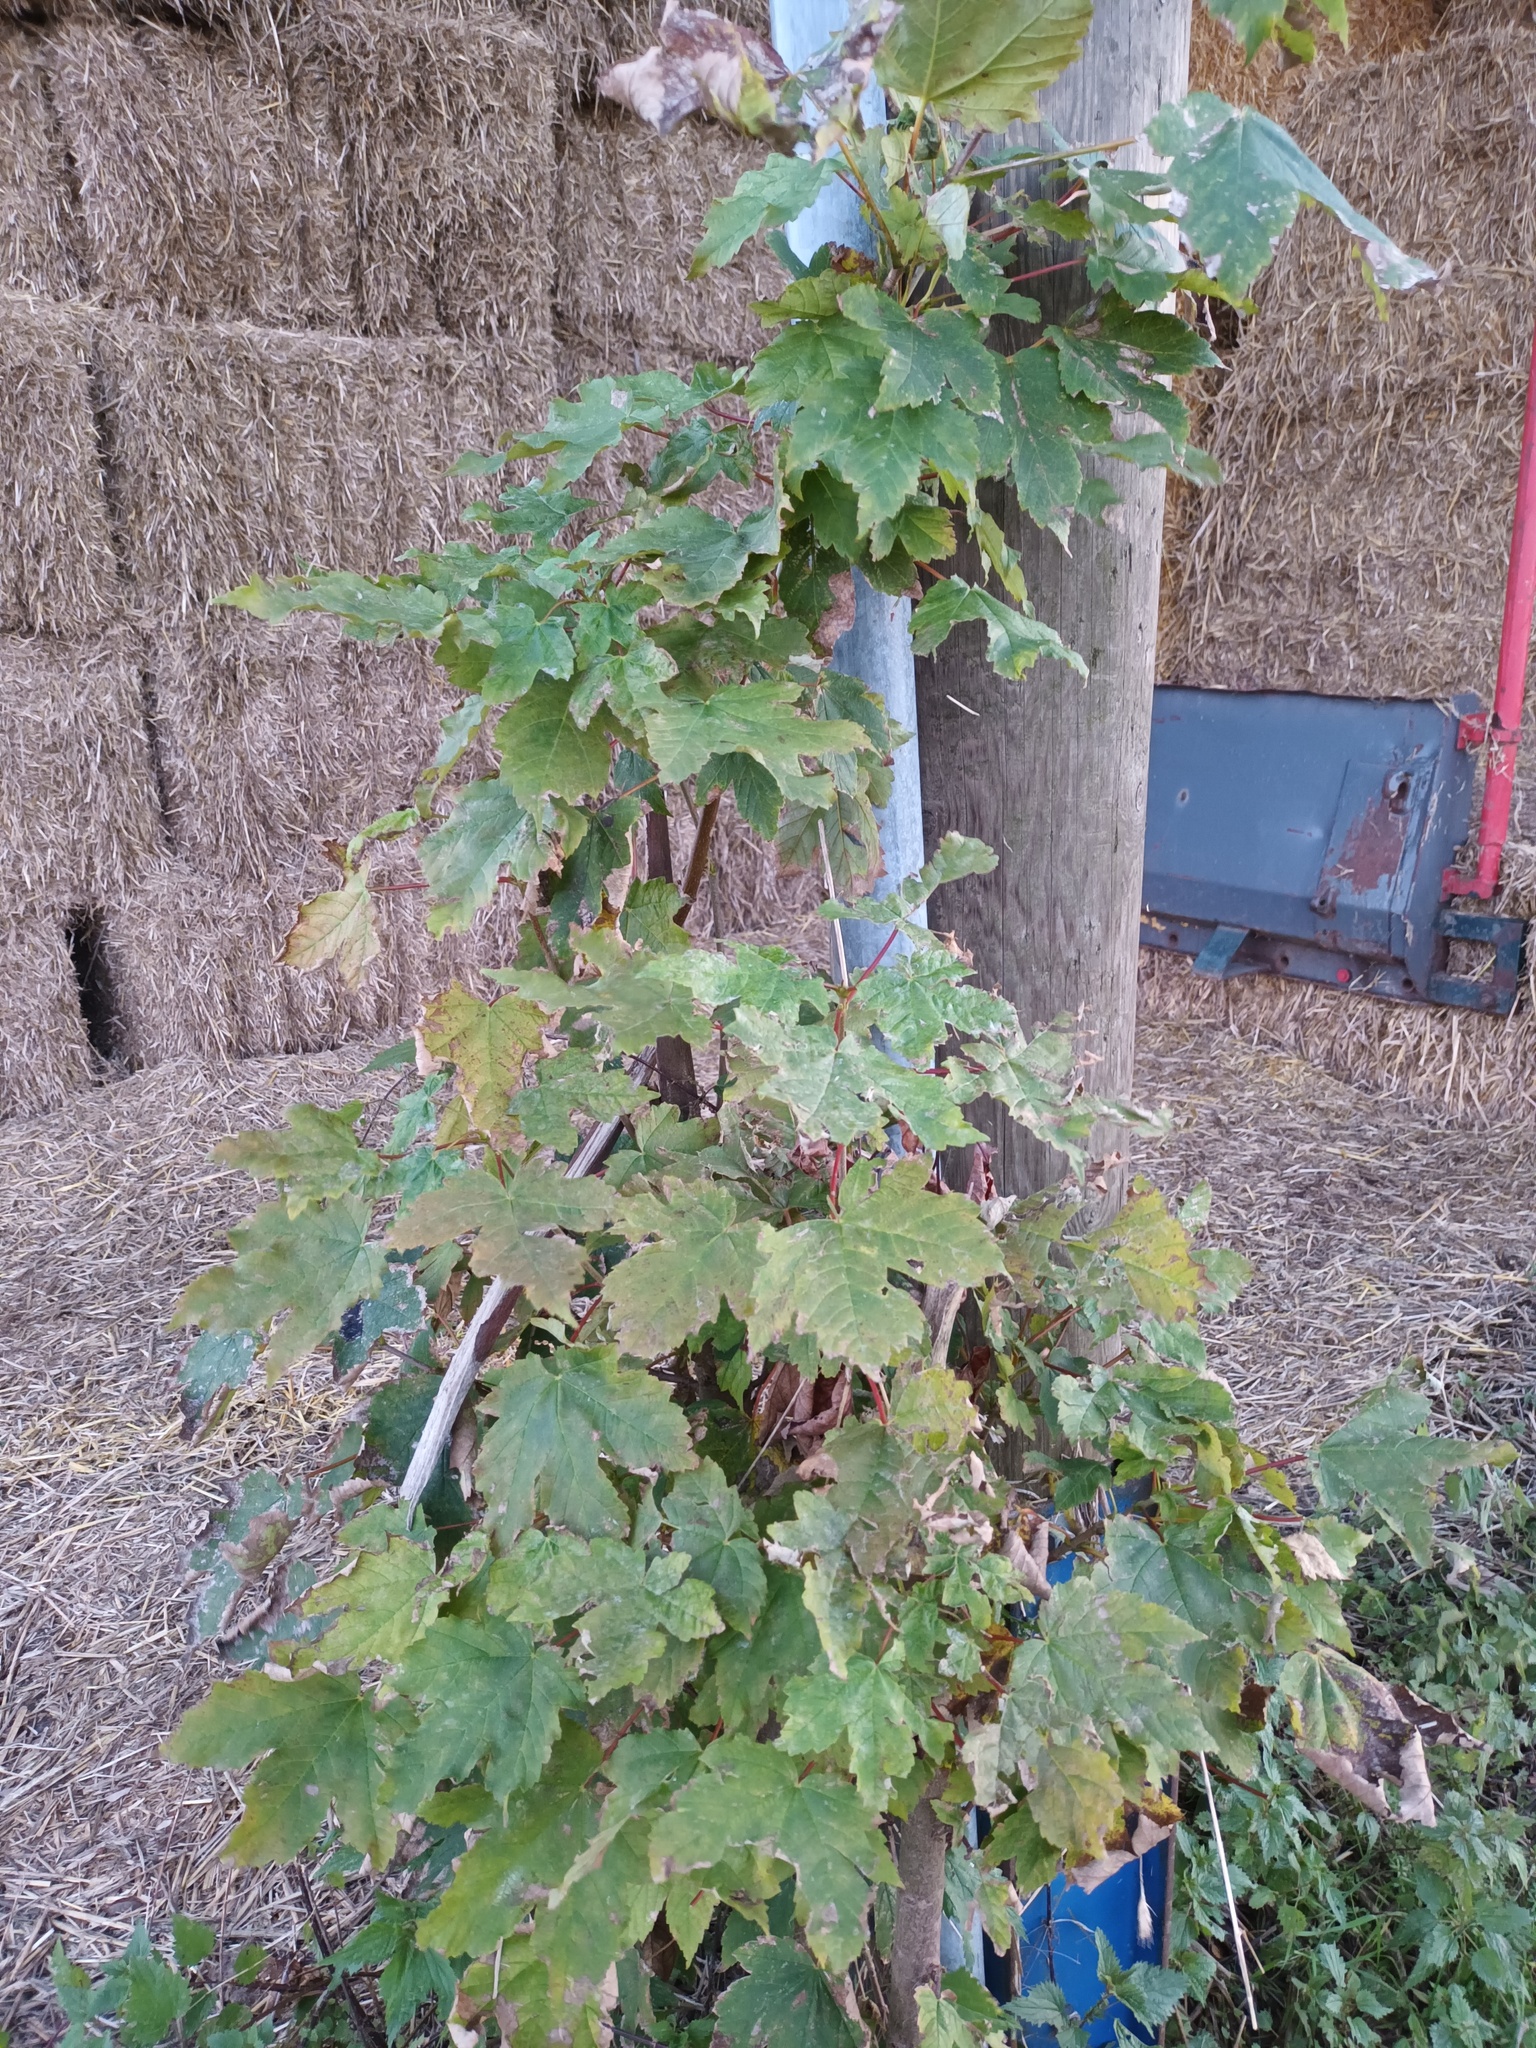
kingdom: Plantae
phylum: Tracheophyta
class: Magnoliopsida
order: Sapindales
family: Sapindaceae
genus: Acer
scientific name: Acer pseudoplatanus
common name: Sycamore
